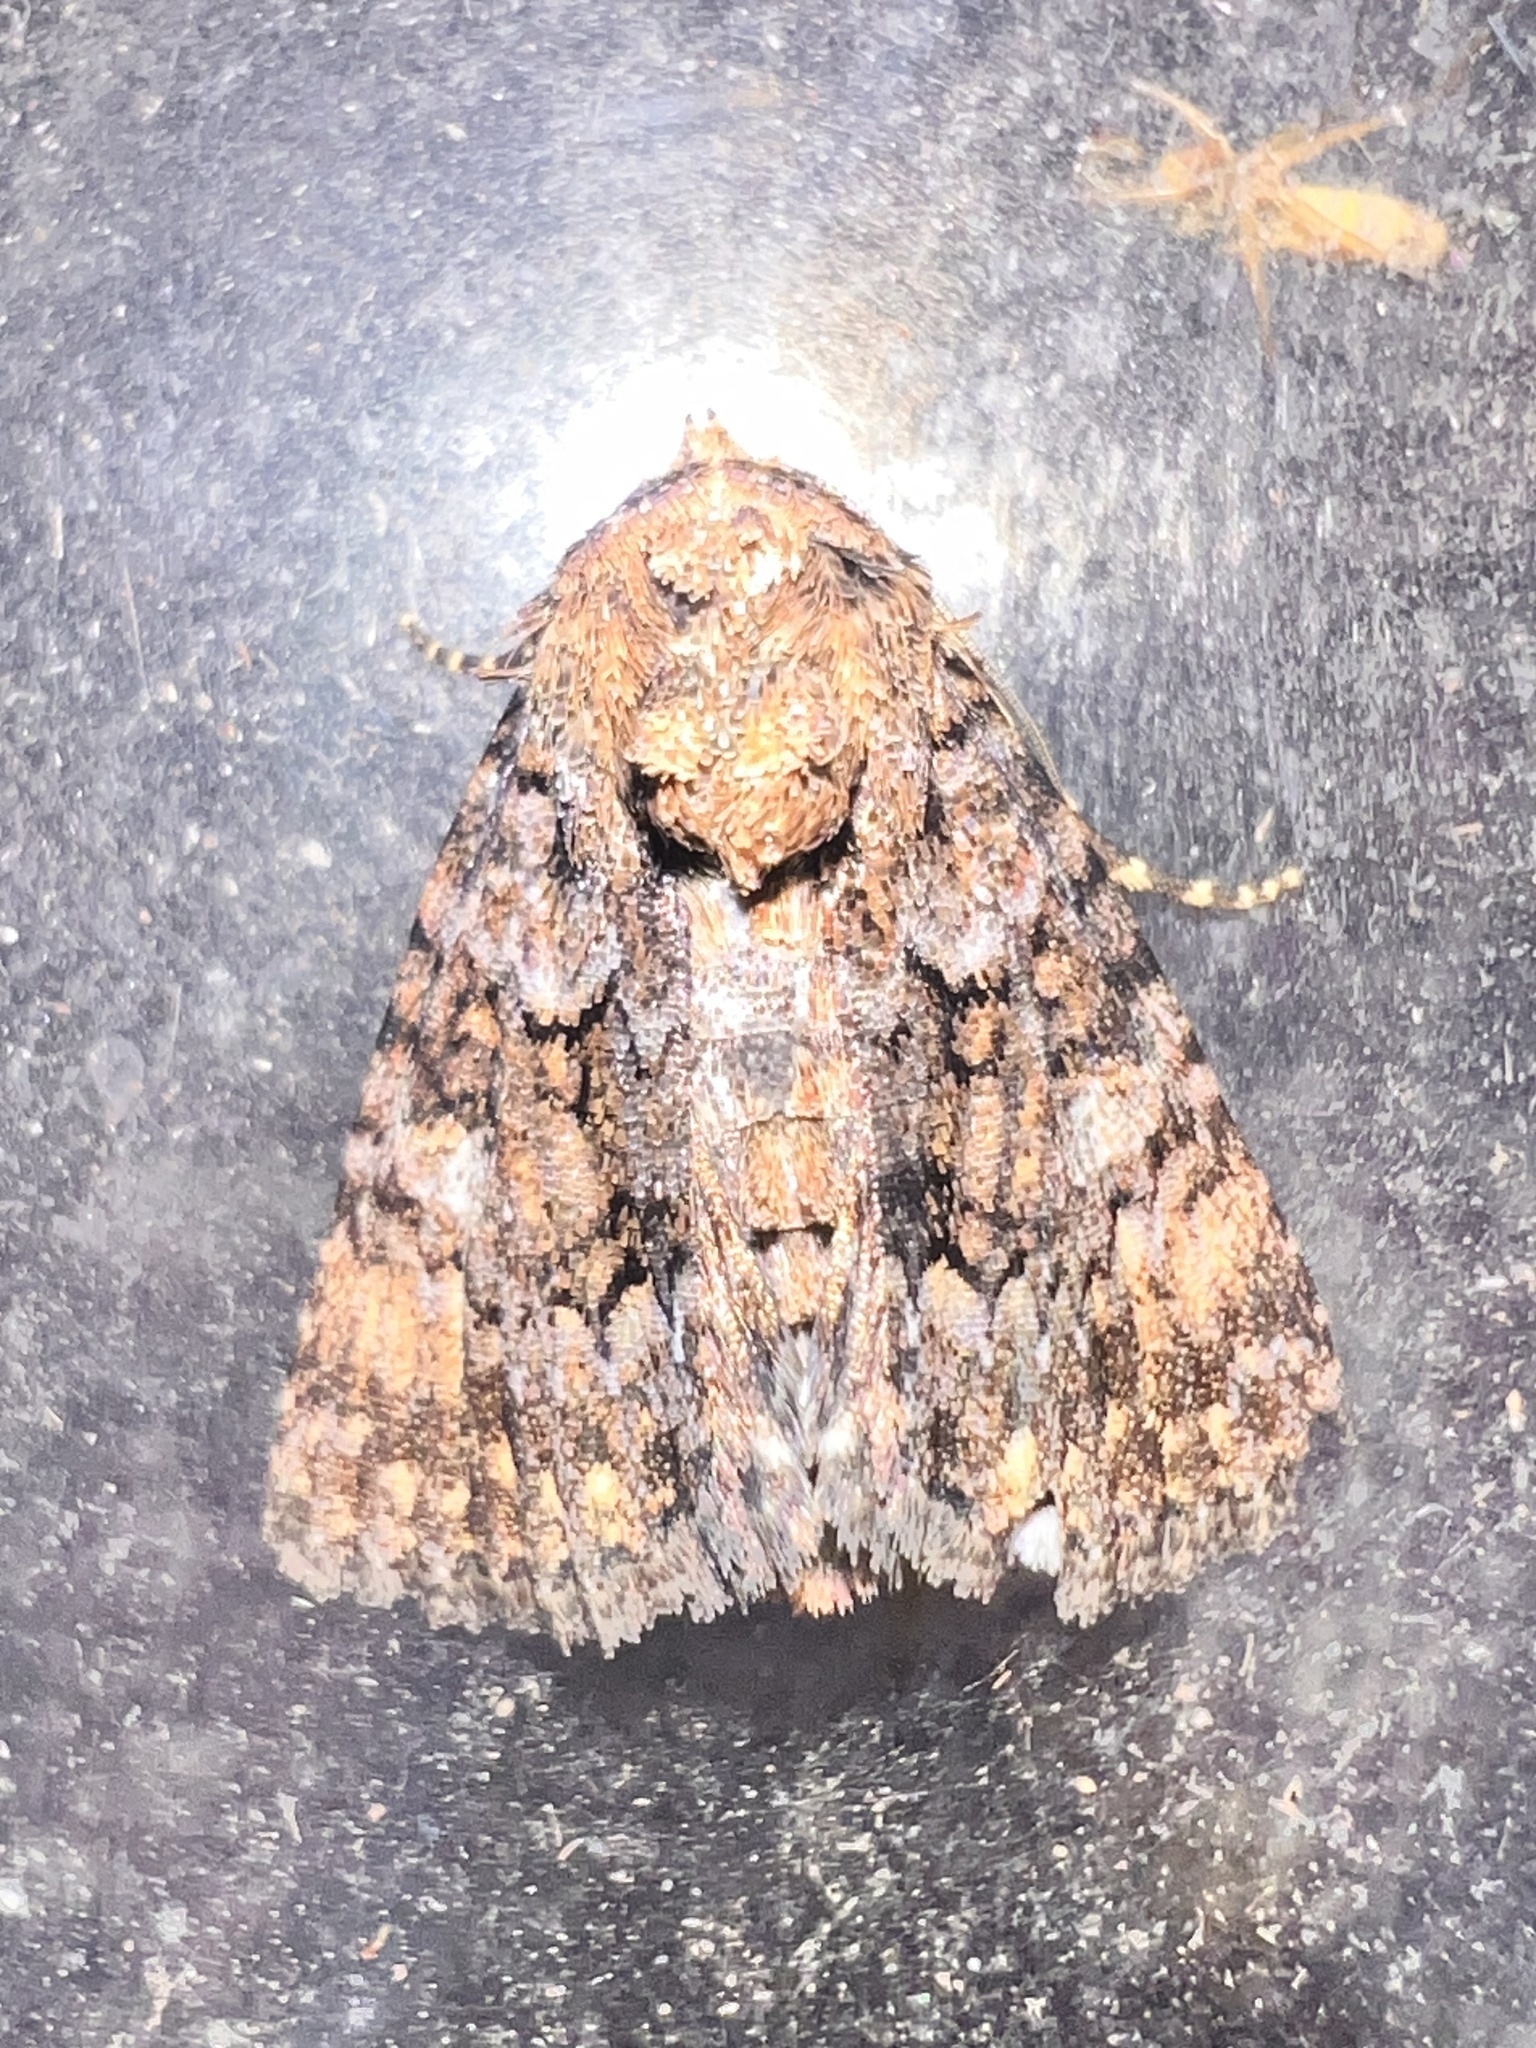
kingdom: Animalia
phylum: Arthropoda
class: Insecta
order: Lepidoptera
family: Erebidae
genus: Ecpatia
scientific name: Ecpatia dulcistriga
